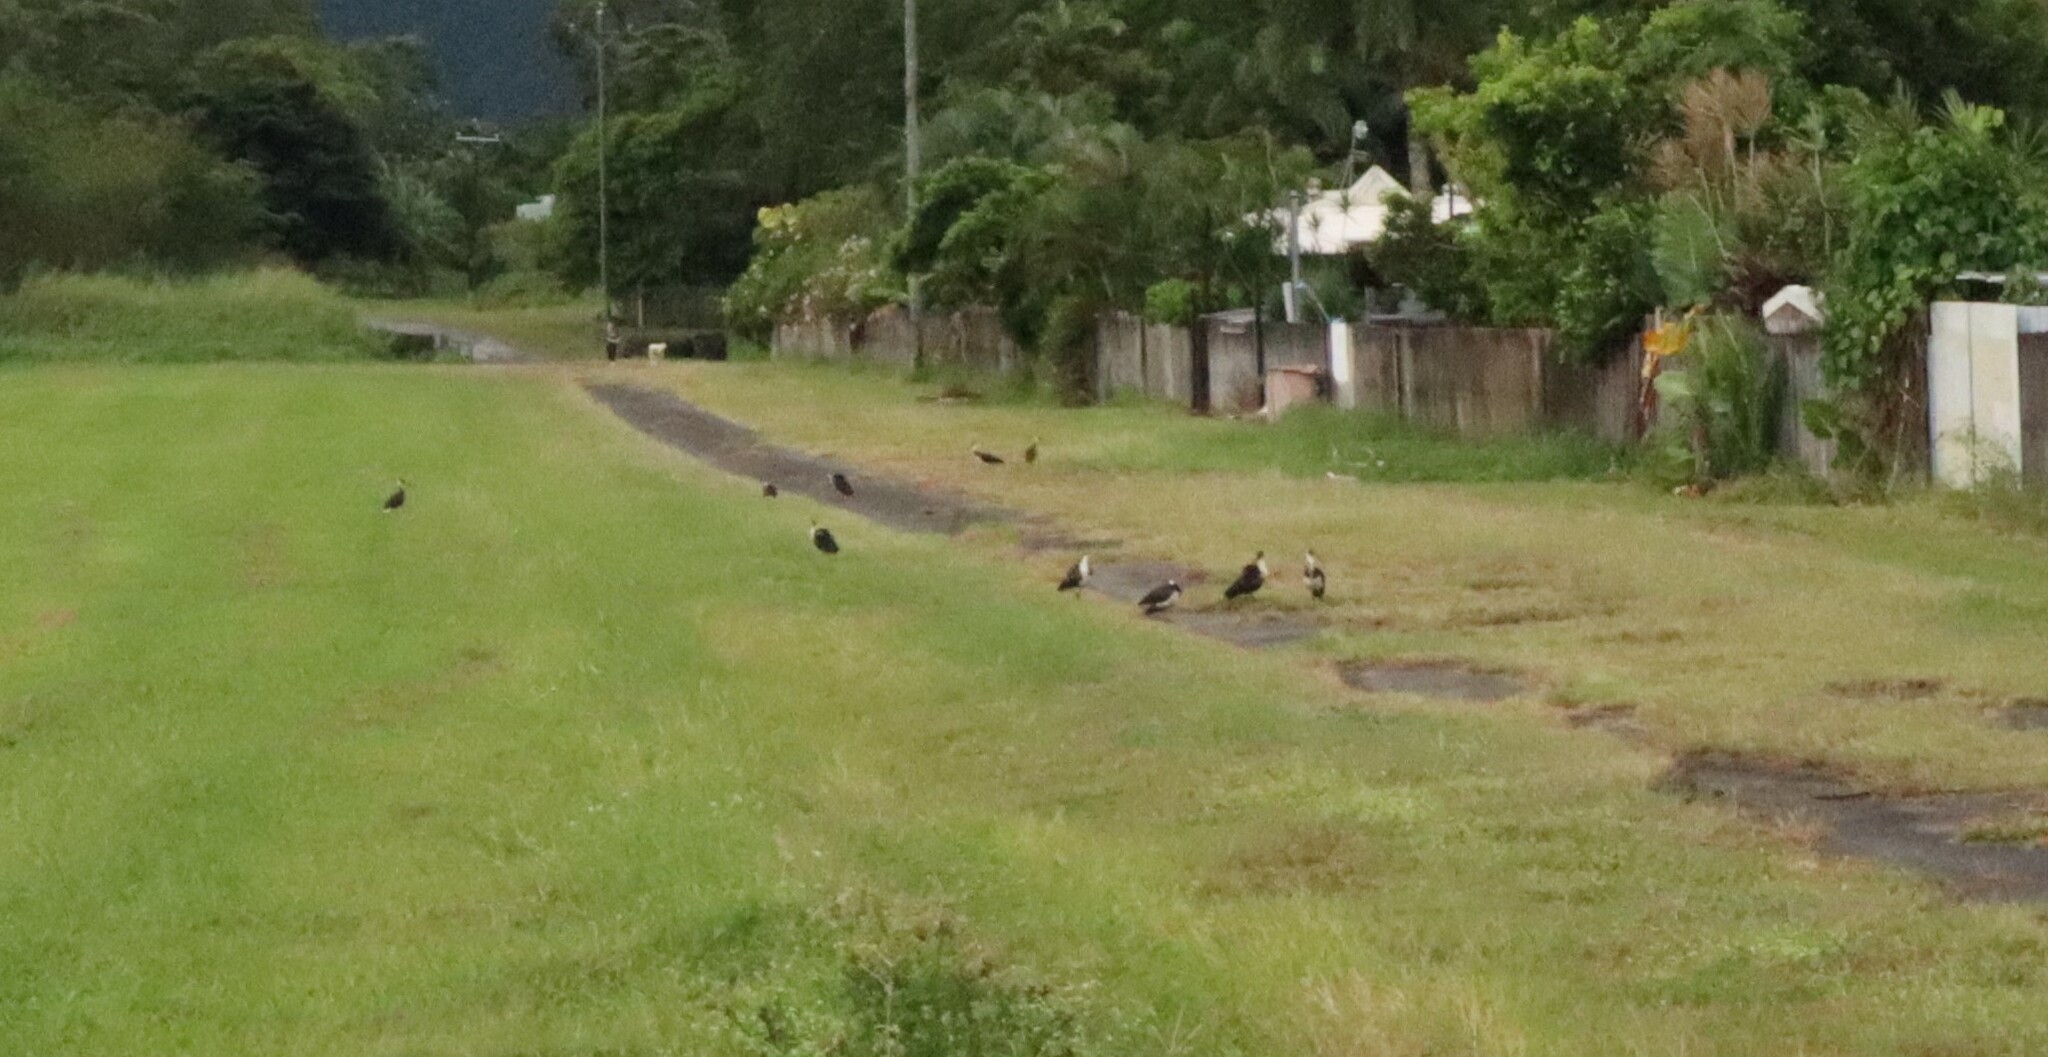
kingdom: Animalia
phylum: Chordata
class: Aves
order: Pelecaniformes
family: Threskiornithidae
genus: Threskiornis
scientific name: Threskiornis spinicollis
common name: Straw-necked ibis
